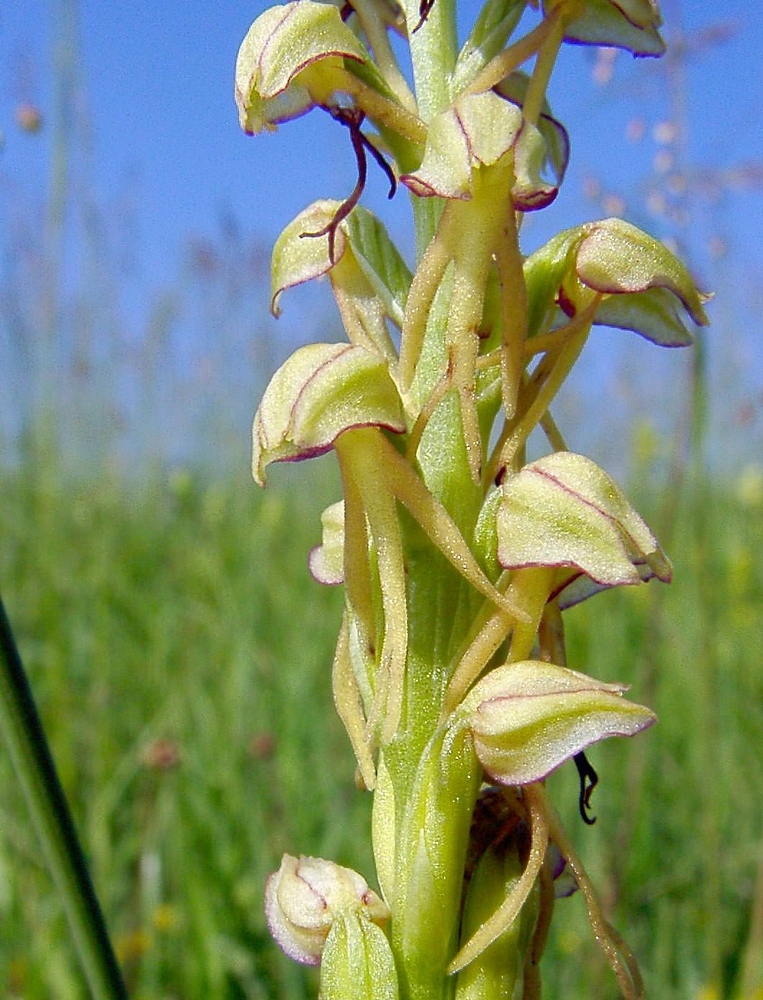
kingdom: Plantae
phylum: Tracheophyta
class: Liliopsida
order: Asparagales
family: Orchidaceae
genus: Orchis
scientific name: Orchis anthropophora
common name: Man orchid
